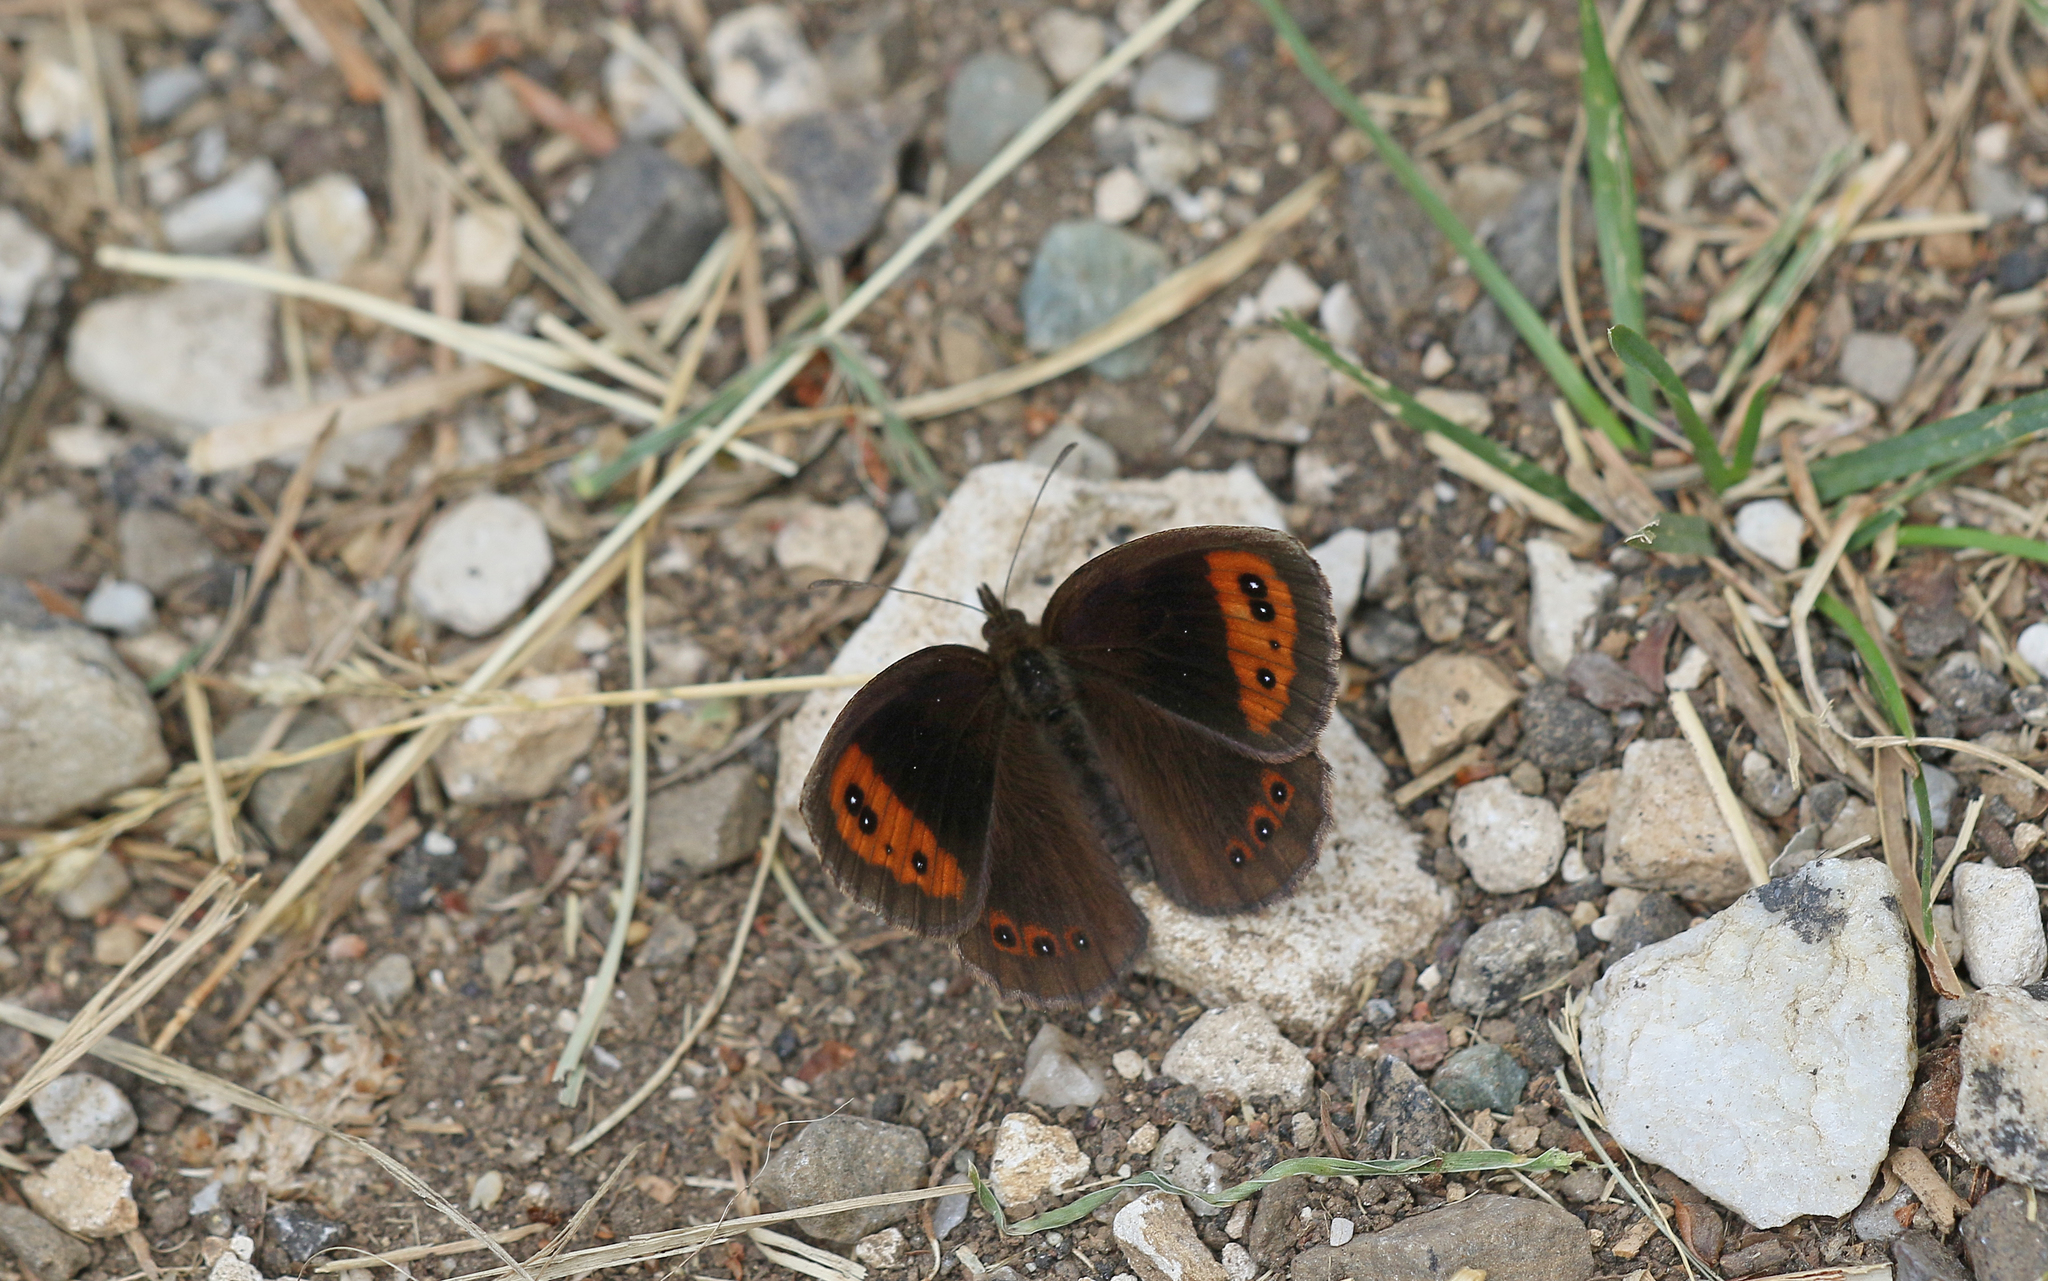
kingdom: Animalia
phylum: Arthropoda
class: Insecta
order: Lepidoptera
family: Nymphalidae
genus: Erebia
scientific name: Erebia neoridas
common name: Autumn ringlet
